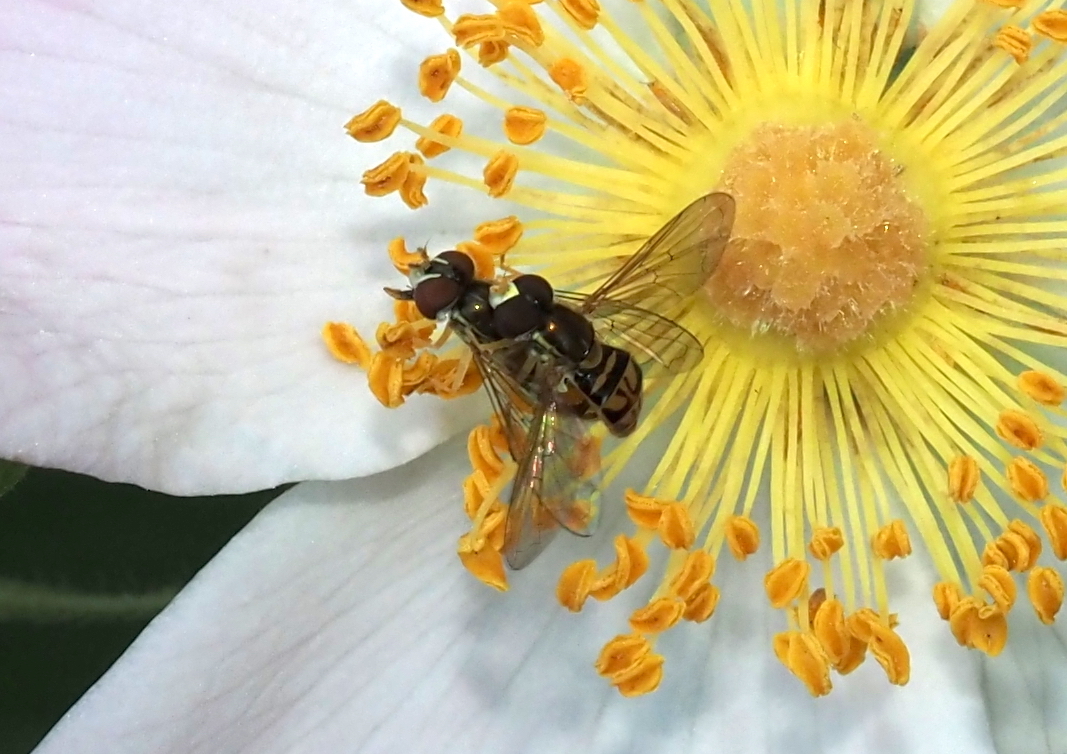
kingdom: Animalia
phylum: Arthropoda
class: Insecta
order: Diptera
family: Syrphidae
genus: Toxomerus
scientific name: Toxomerus marginatus
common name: Syrphid fly
